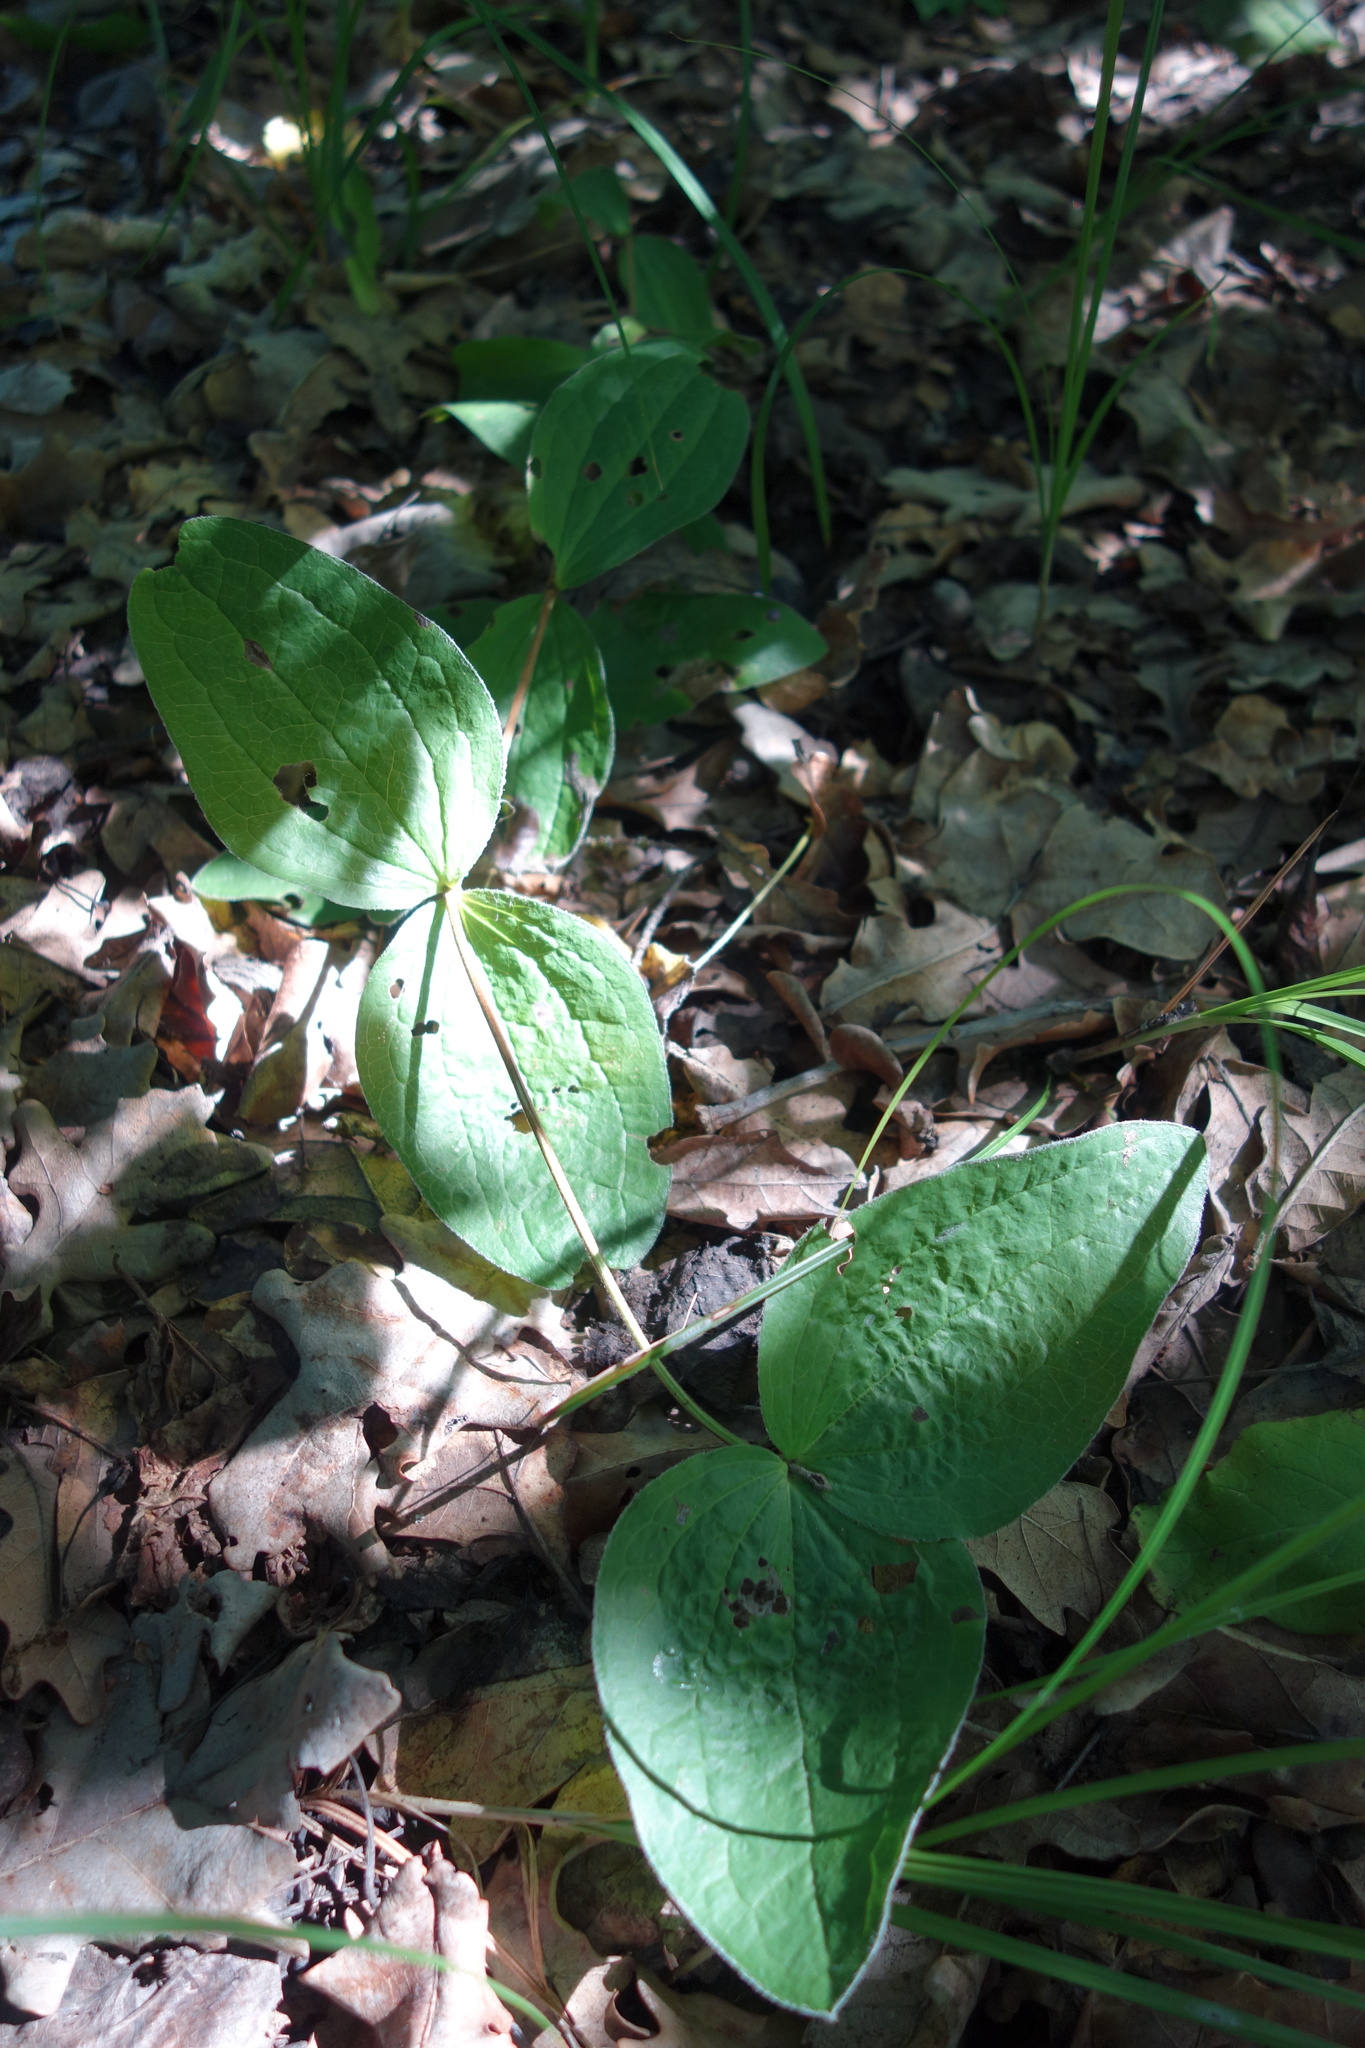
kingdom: Plantae
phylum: Tracheophyta
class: Magnoliopsida
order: Ranunculales
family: Ranunculaceae
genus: Clematis
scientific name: Clematis integrifolia
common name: Solitary clematis
